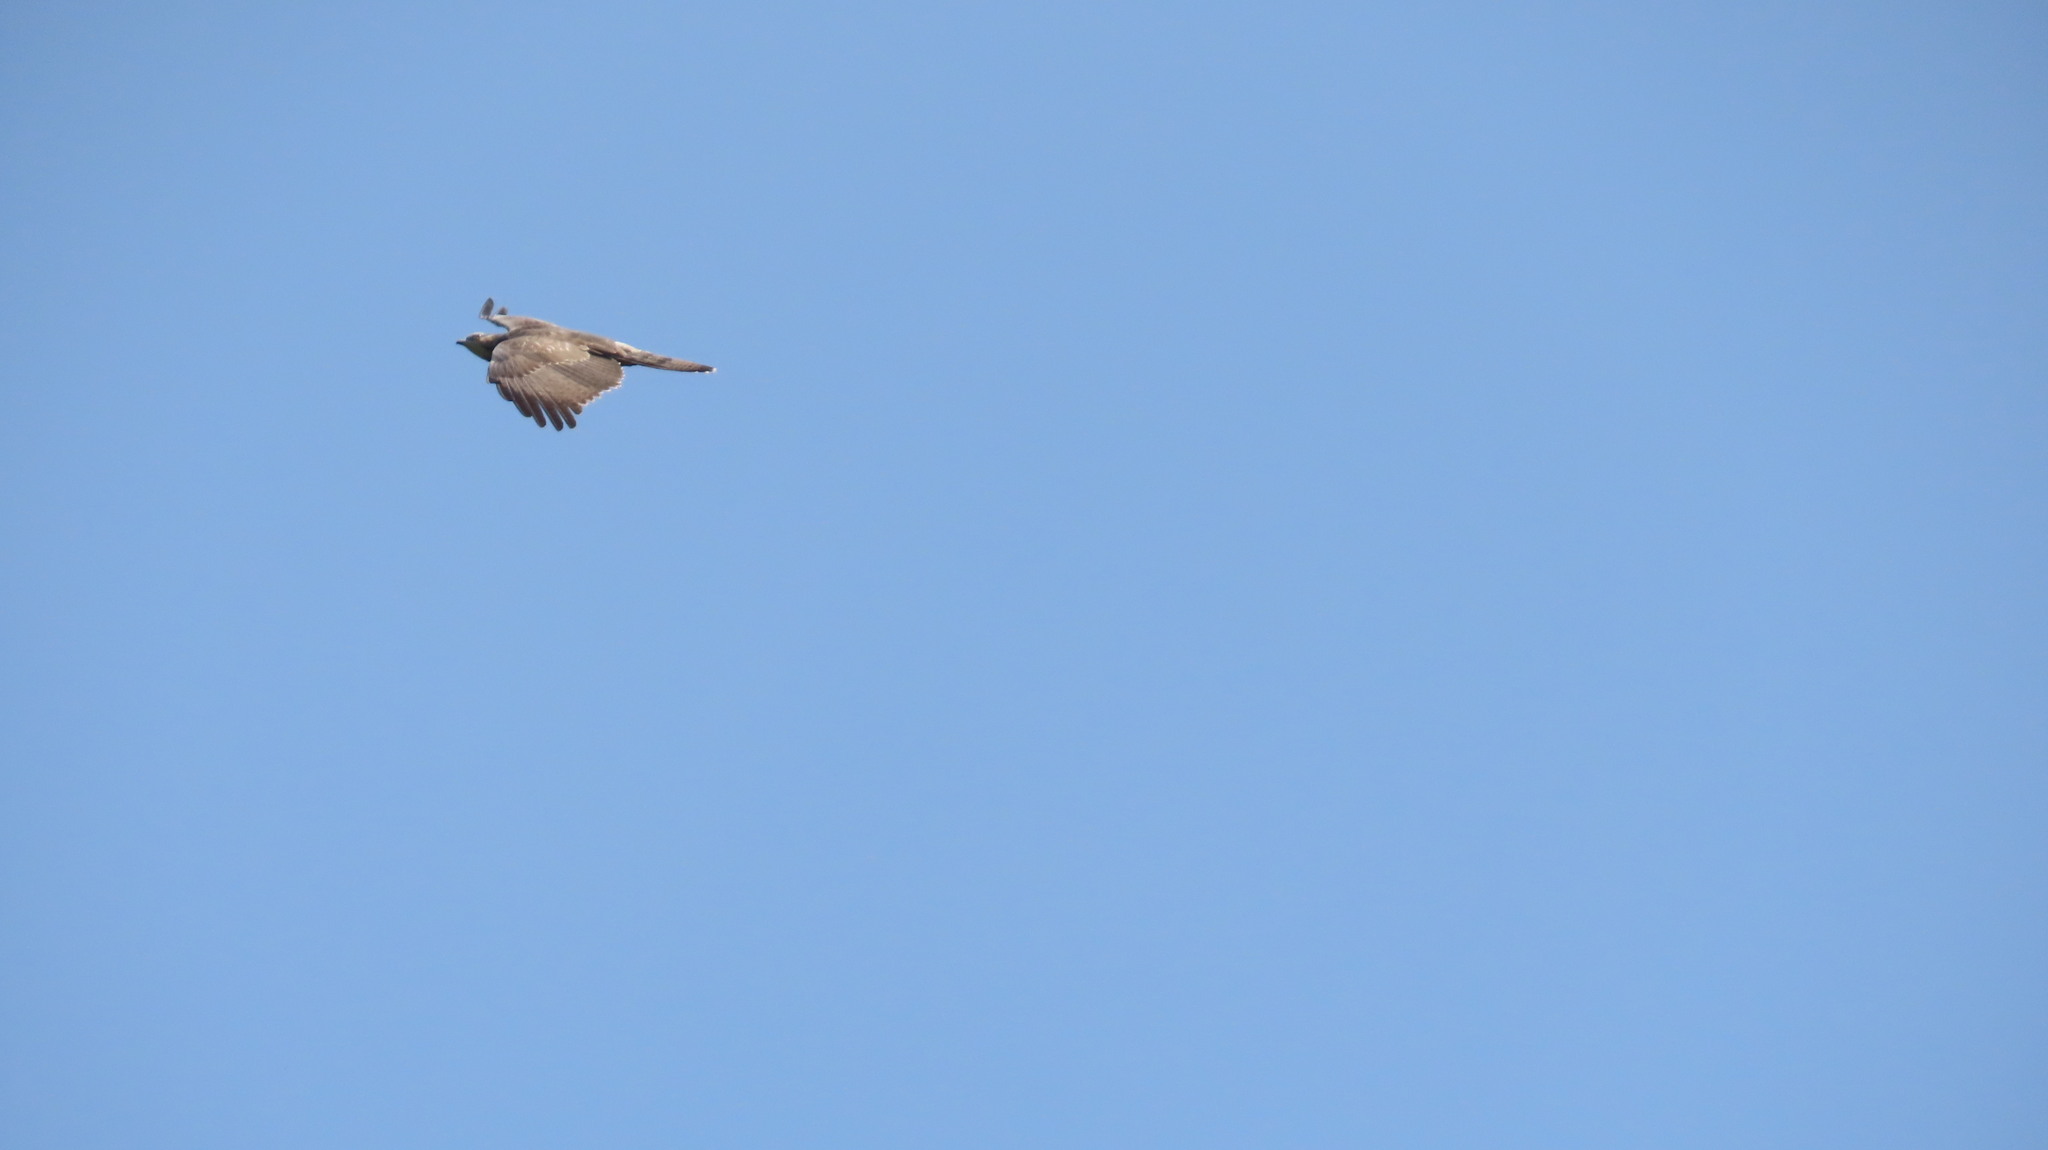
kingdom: Animalia
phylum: Chordata
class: Aves
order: Accipitriformes
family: Accipitridae
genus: Pernis
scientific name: Pernis ptilorhynchus
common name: Crested honey buzzard
